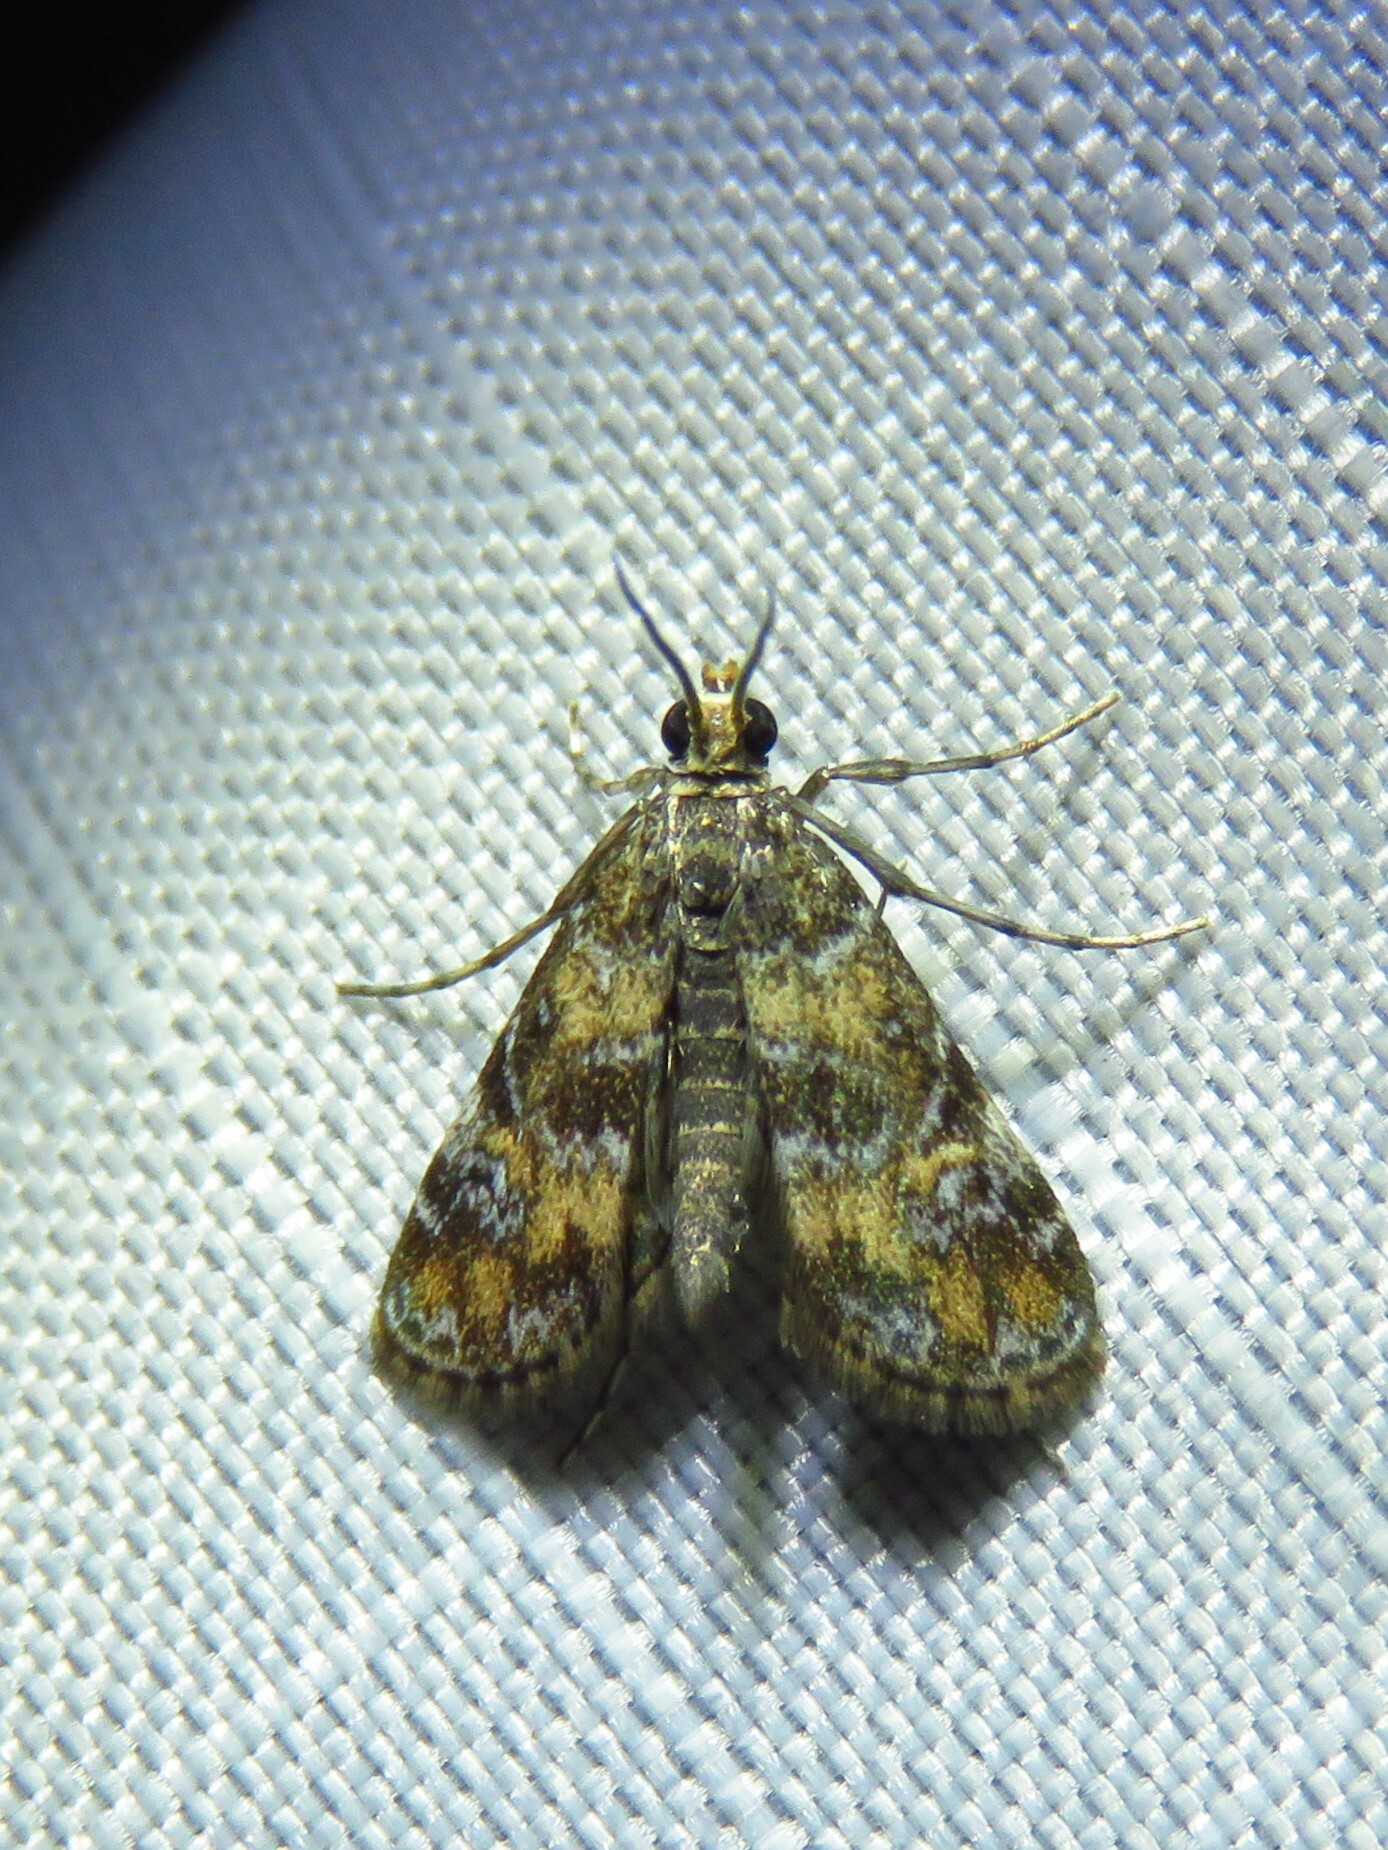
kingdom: Animalia
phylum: Arthropoda
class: Insecta
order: Lepidoptera
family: Crambidae
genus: Elophila
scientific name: Elophila obliteralis
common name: Waterlily leafcutter moth
